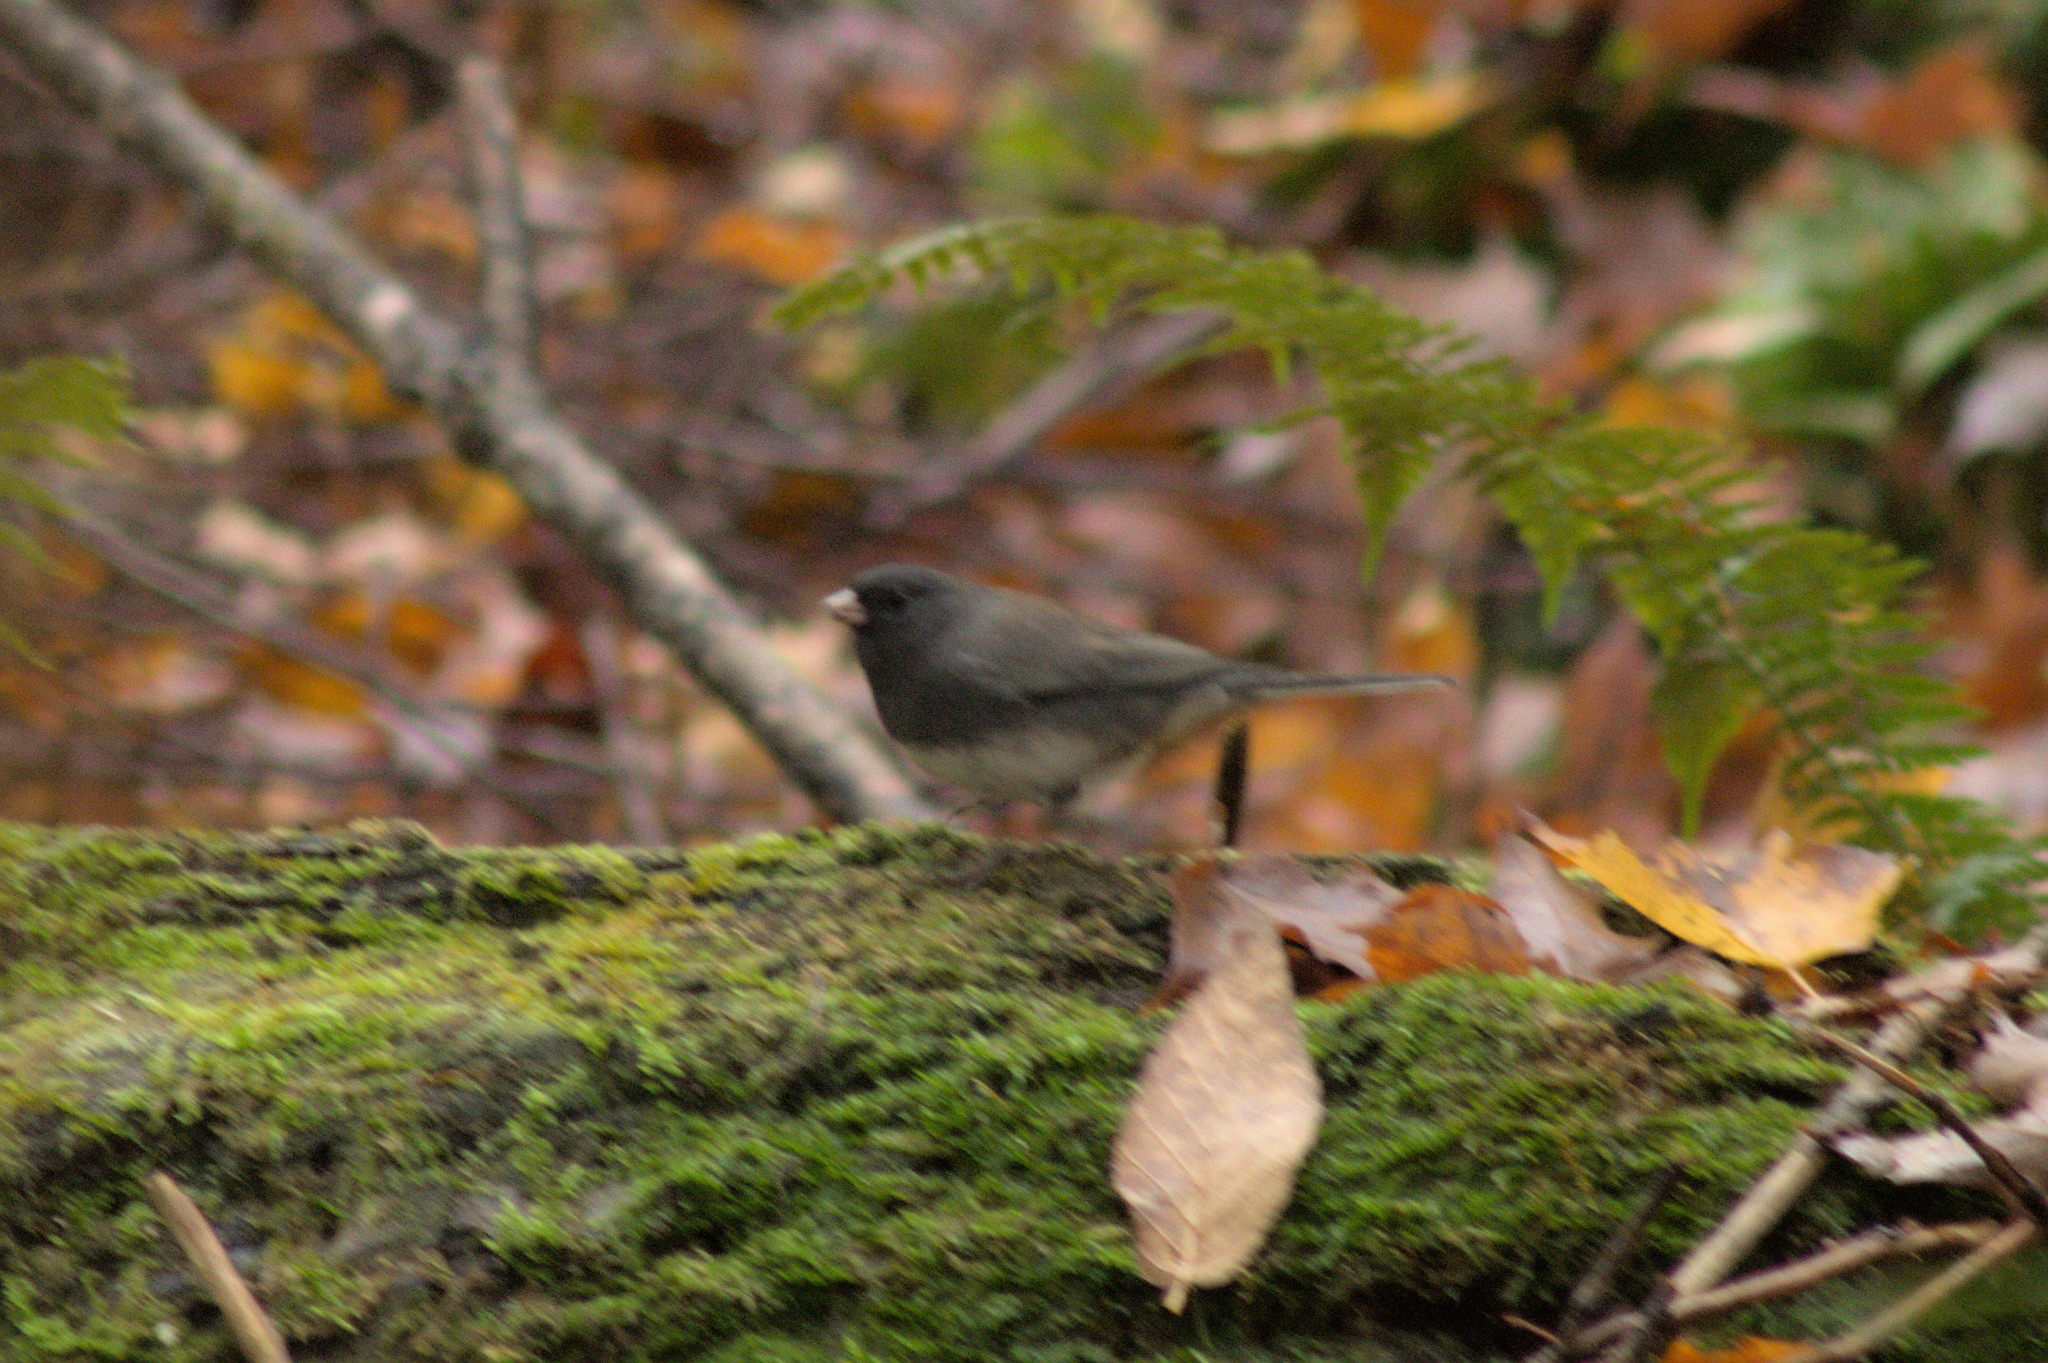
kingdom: Animalia
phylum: Chordata
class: Aves
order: Passeriformes
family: Passerellidae
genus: Junco
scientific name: Junco hyemalis
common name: Dark-eyed junco
